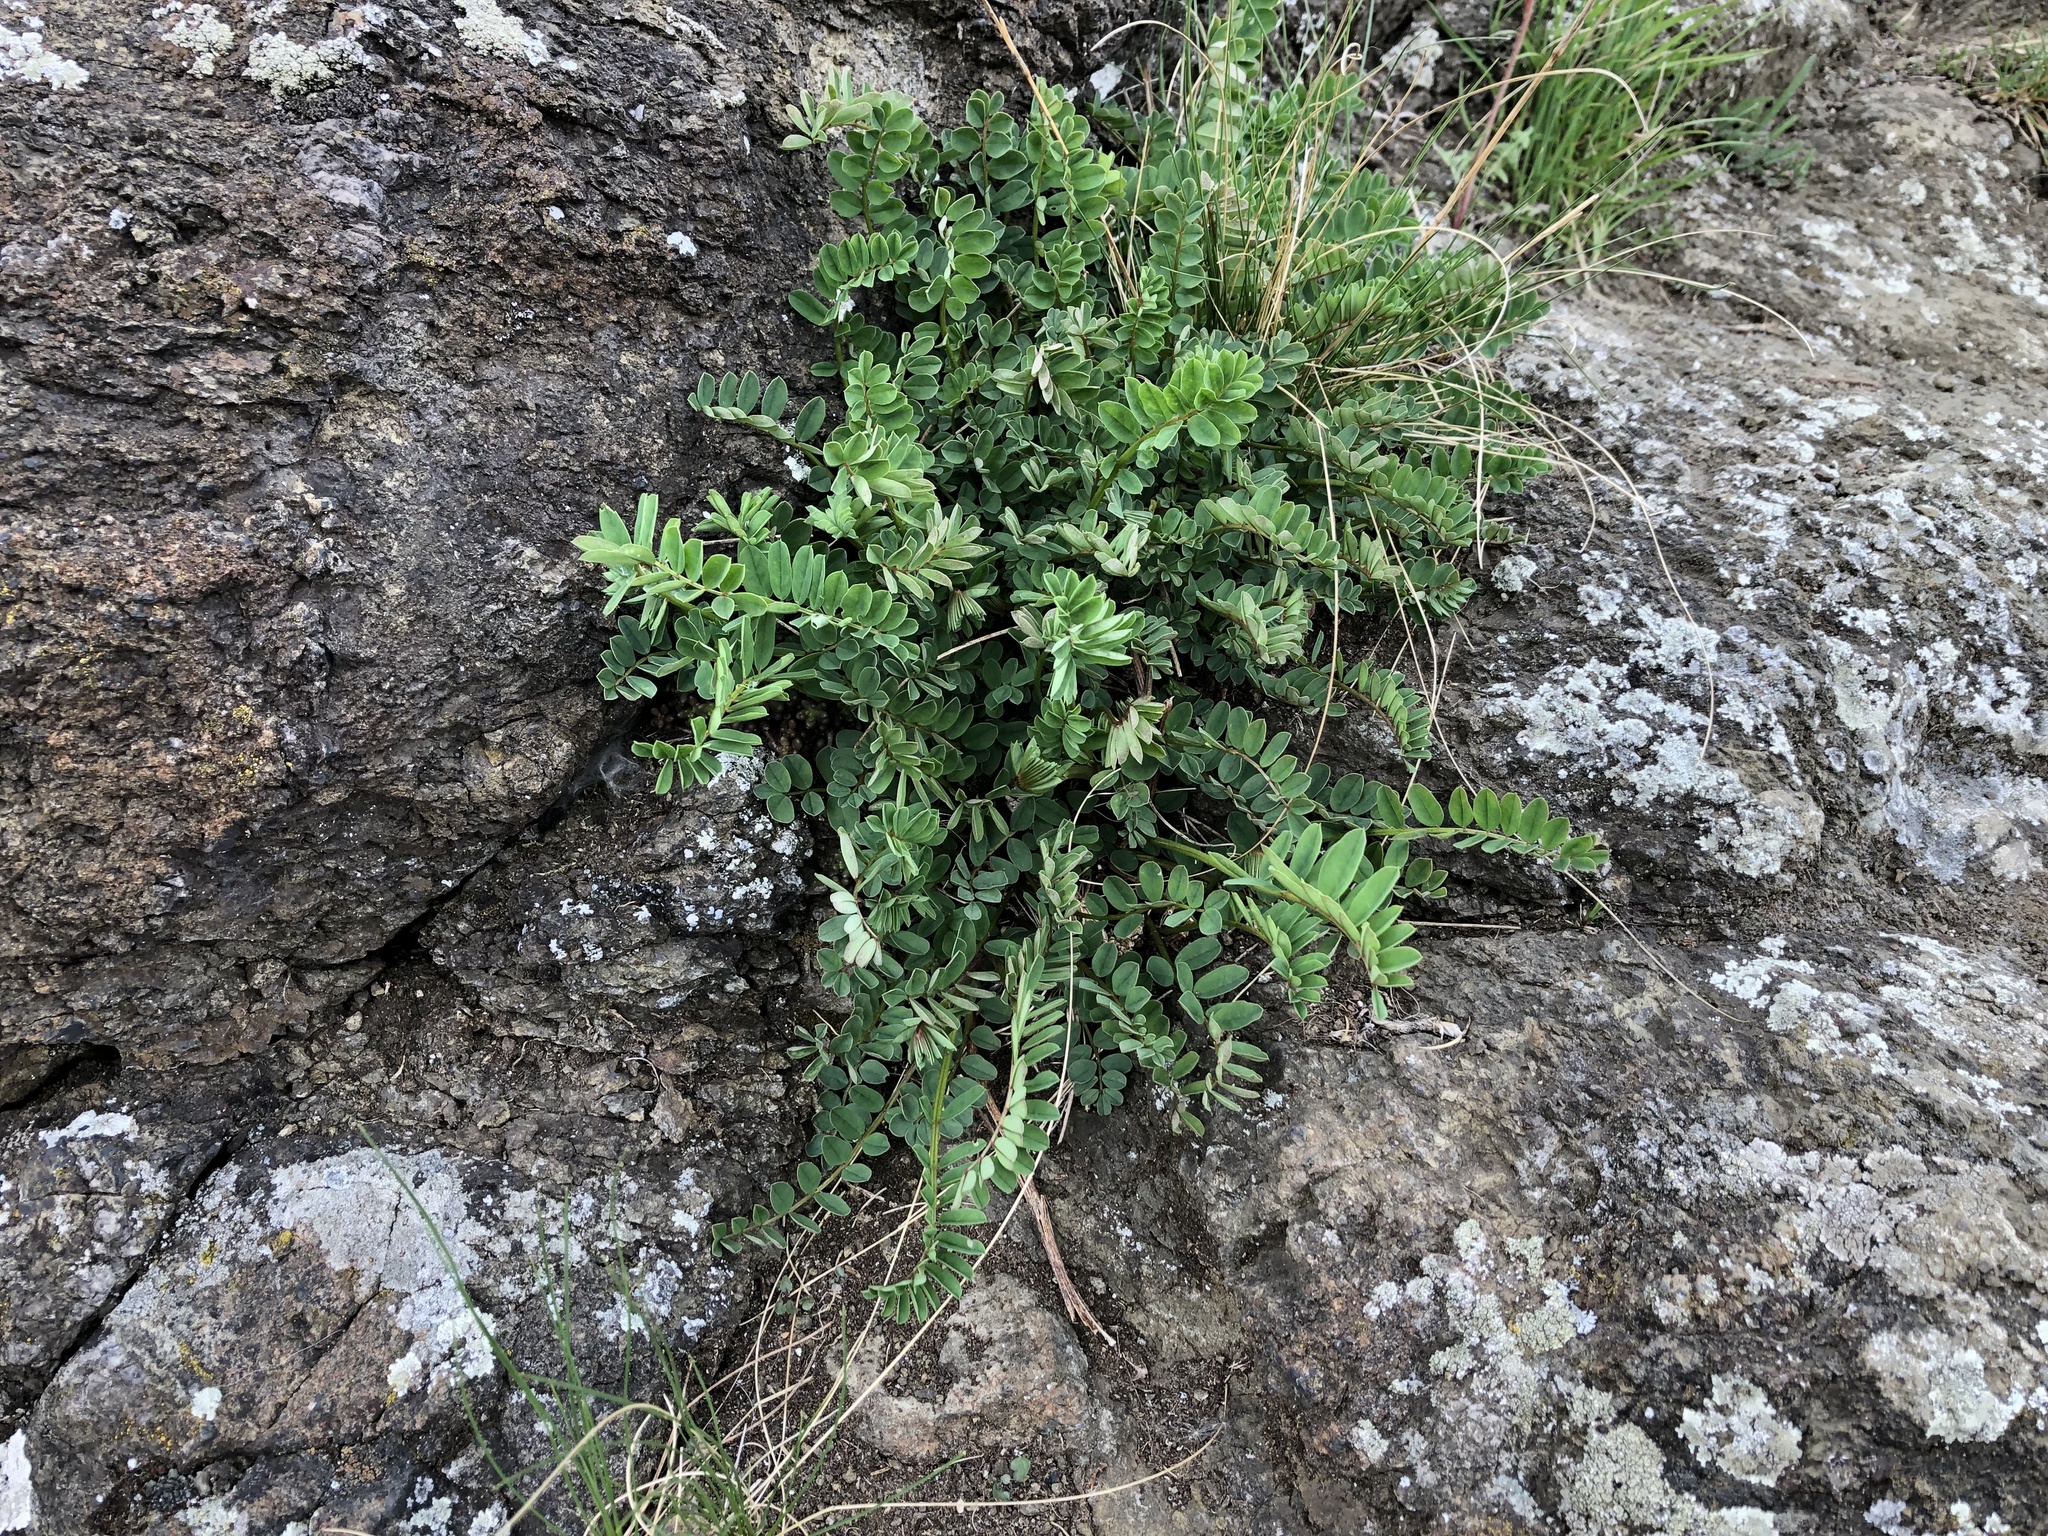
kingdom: Plantae
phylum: Tracheophyta
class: Magnoliopsida
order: Fabales
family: Fabaceae
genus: Coronilla
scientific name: Coronilla varia
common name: Crownvetch
